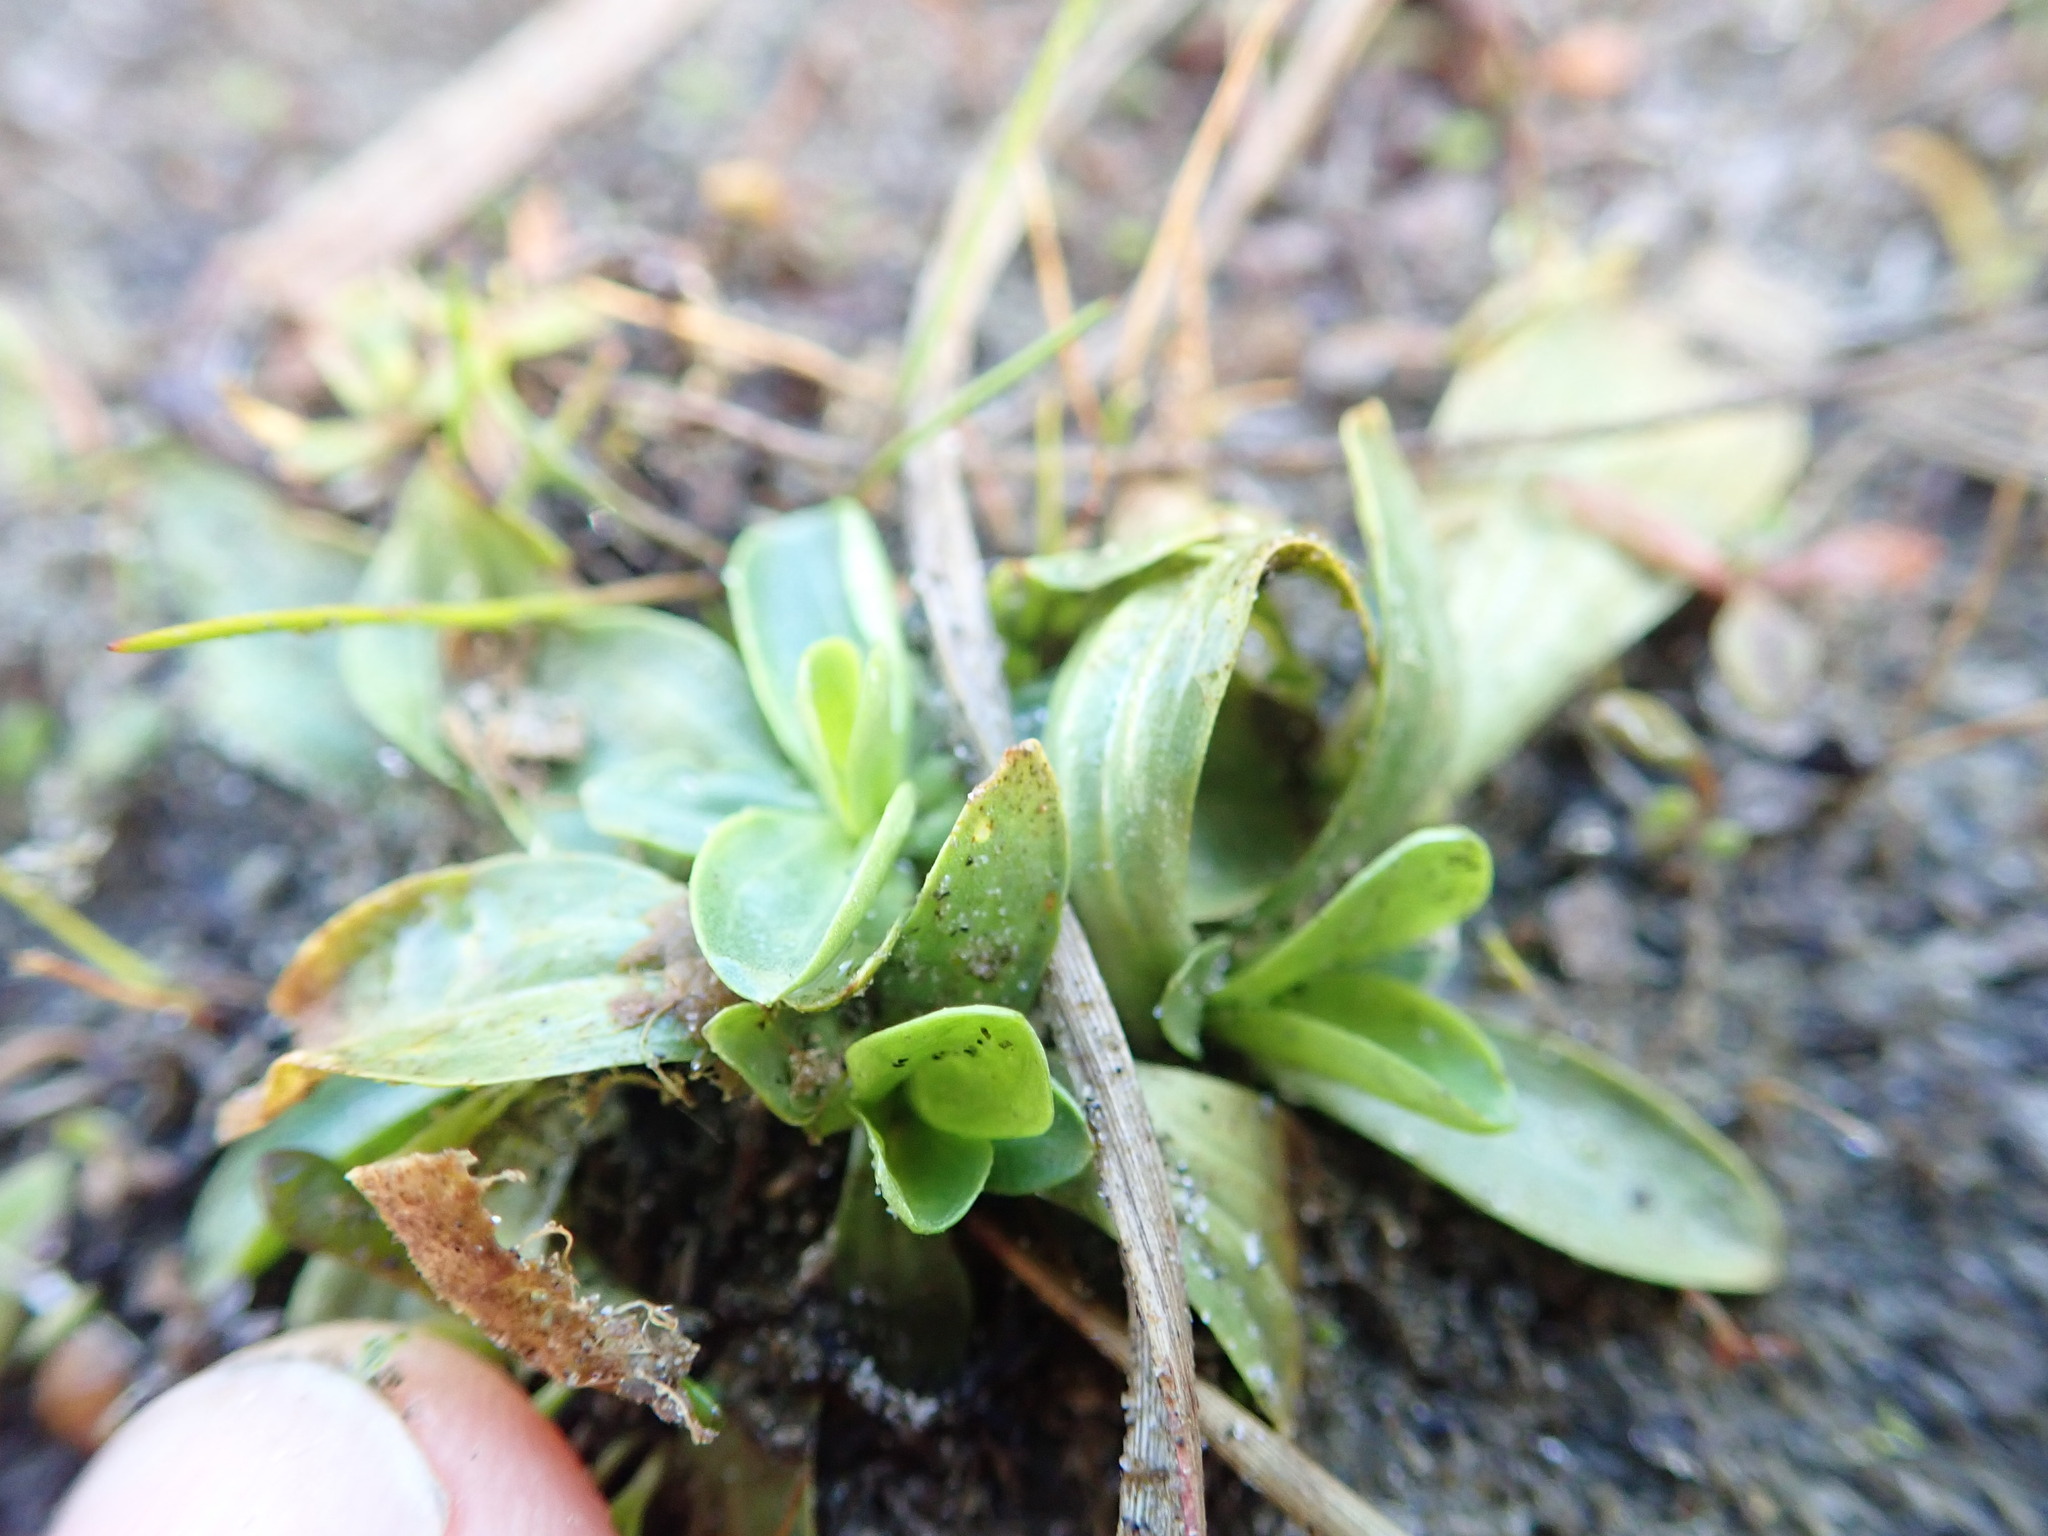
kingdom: Plantae
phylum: Tracheophyta
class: Magnoliopsida
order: Gentianales
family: Gentianaceae
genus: Centaurium
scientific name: Centaurium erythraea
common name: Common centaury
